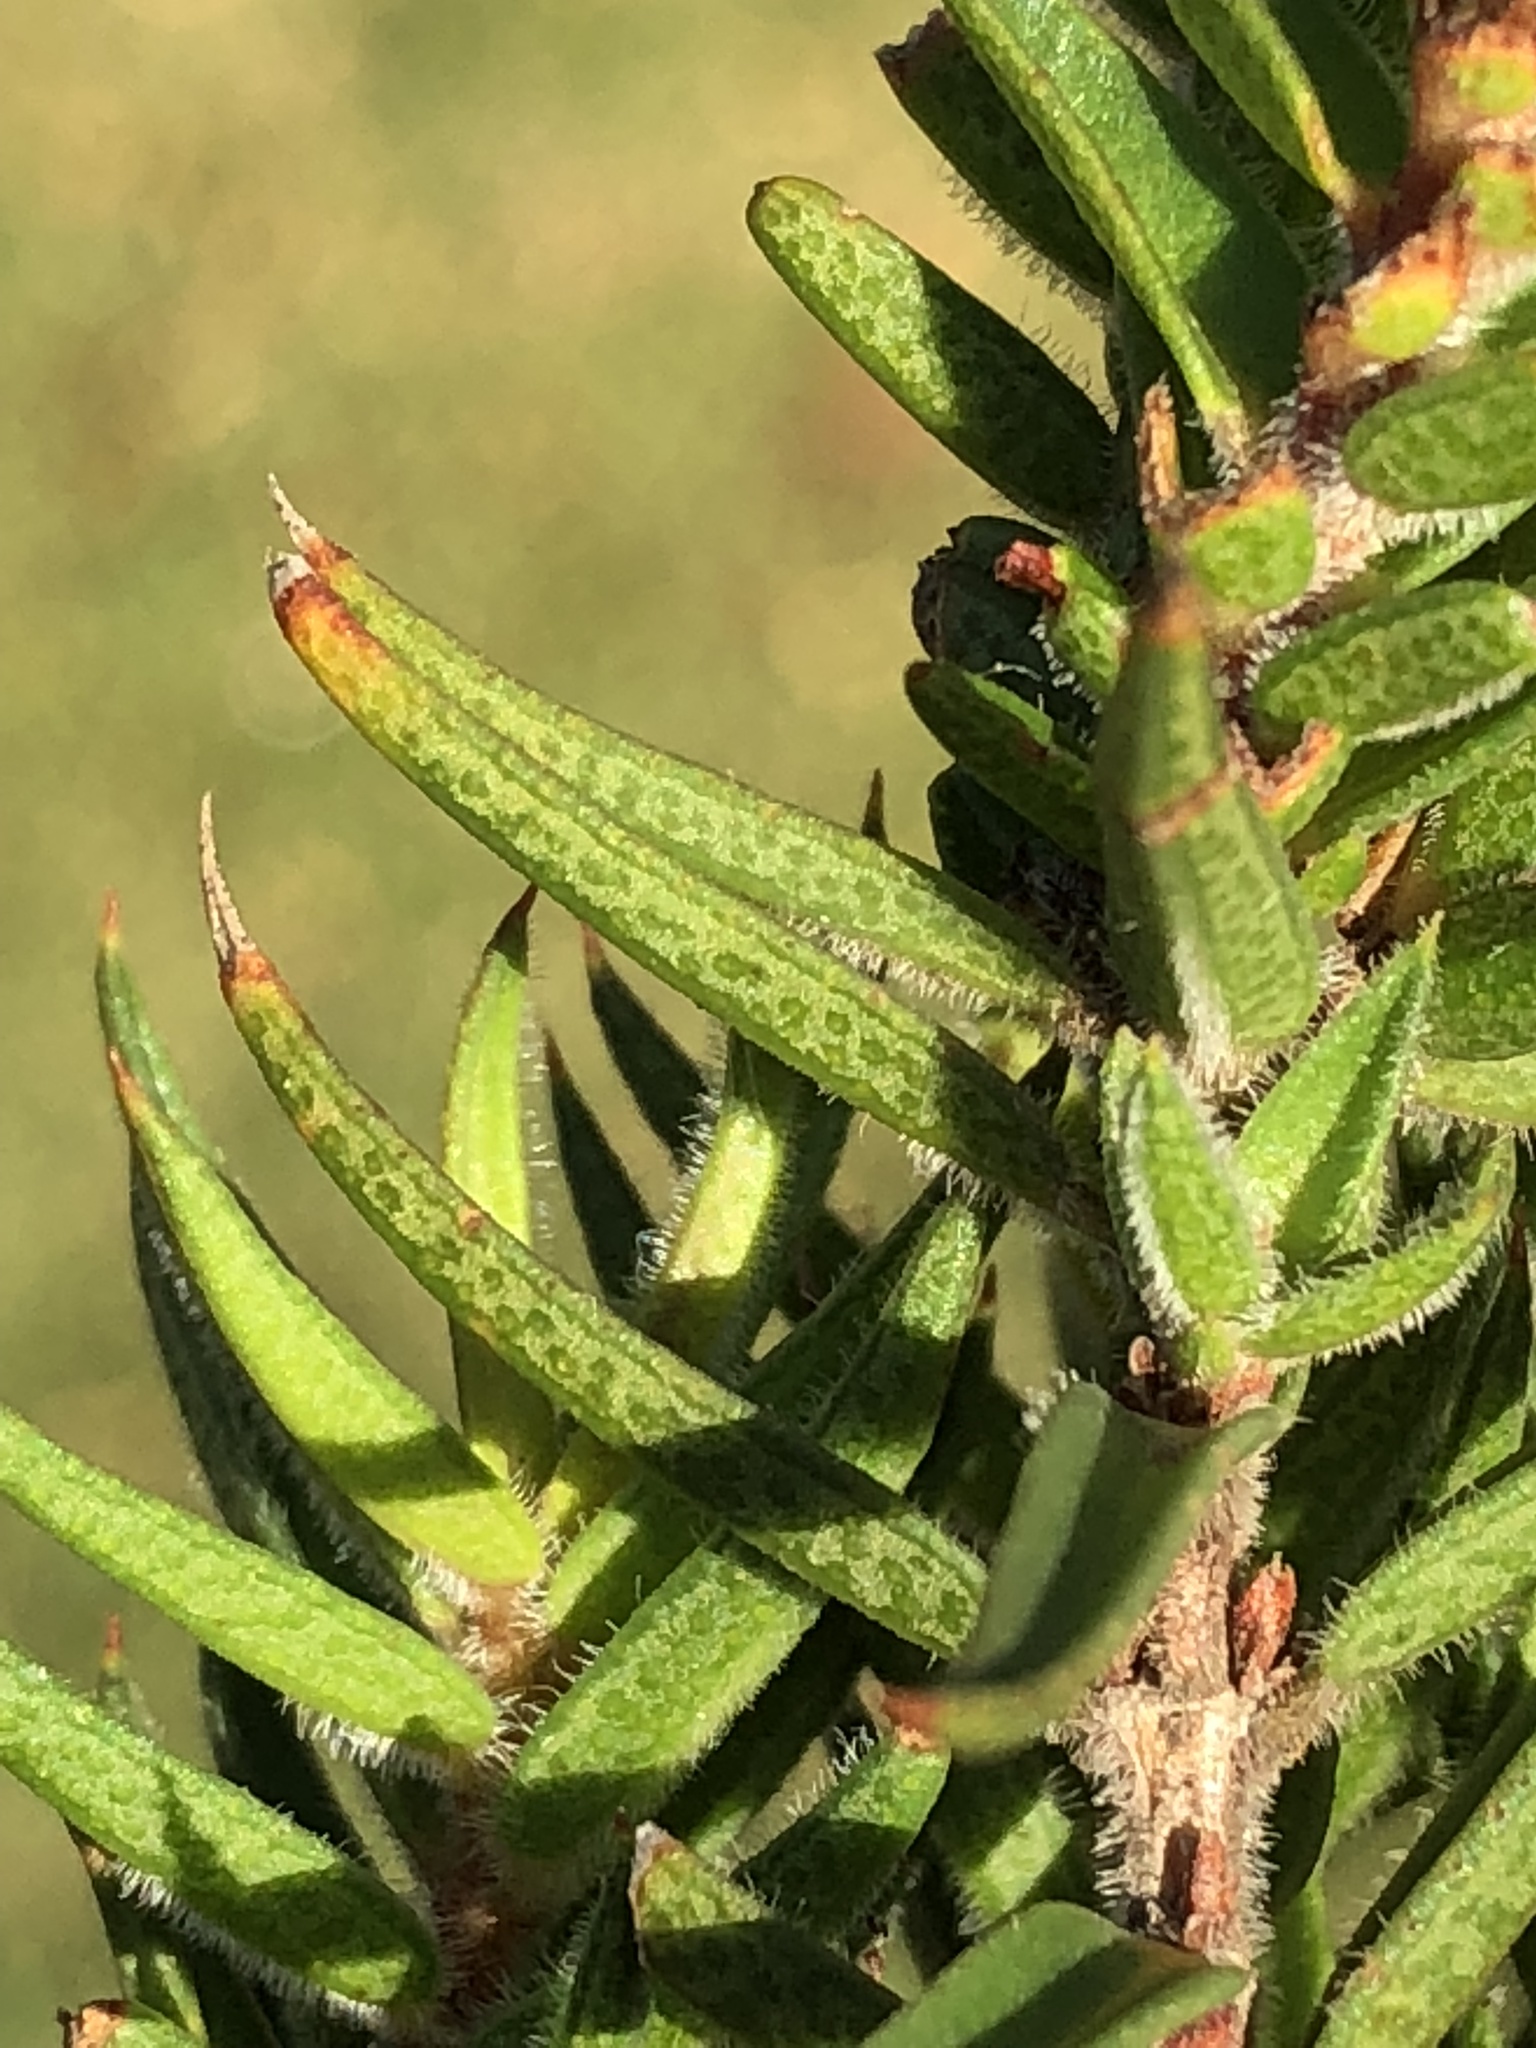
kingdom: Plantae
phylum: Tracheophyta
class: Magnoliopsida
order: Sapindales
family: Rutaceae
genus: Agathosma
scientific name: Agathosma pungens
